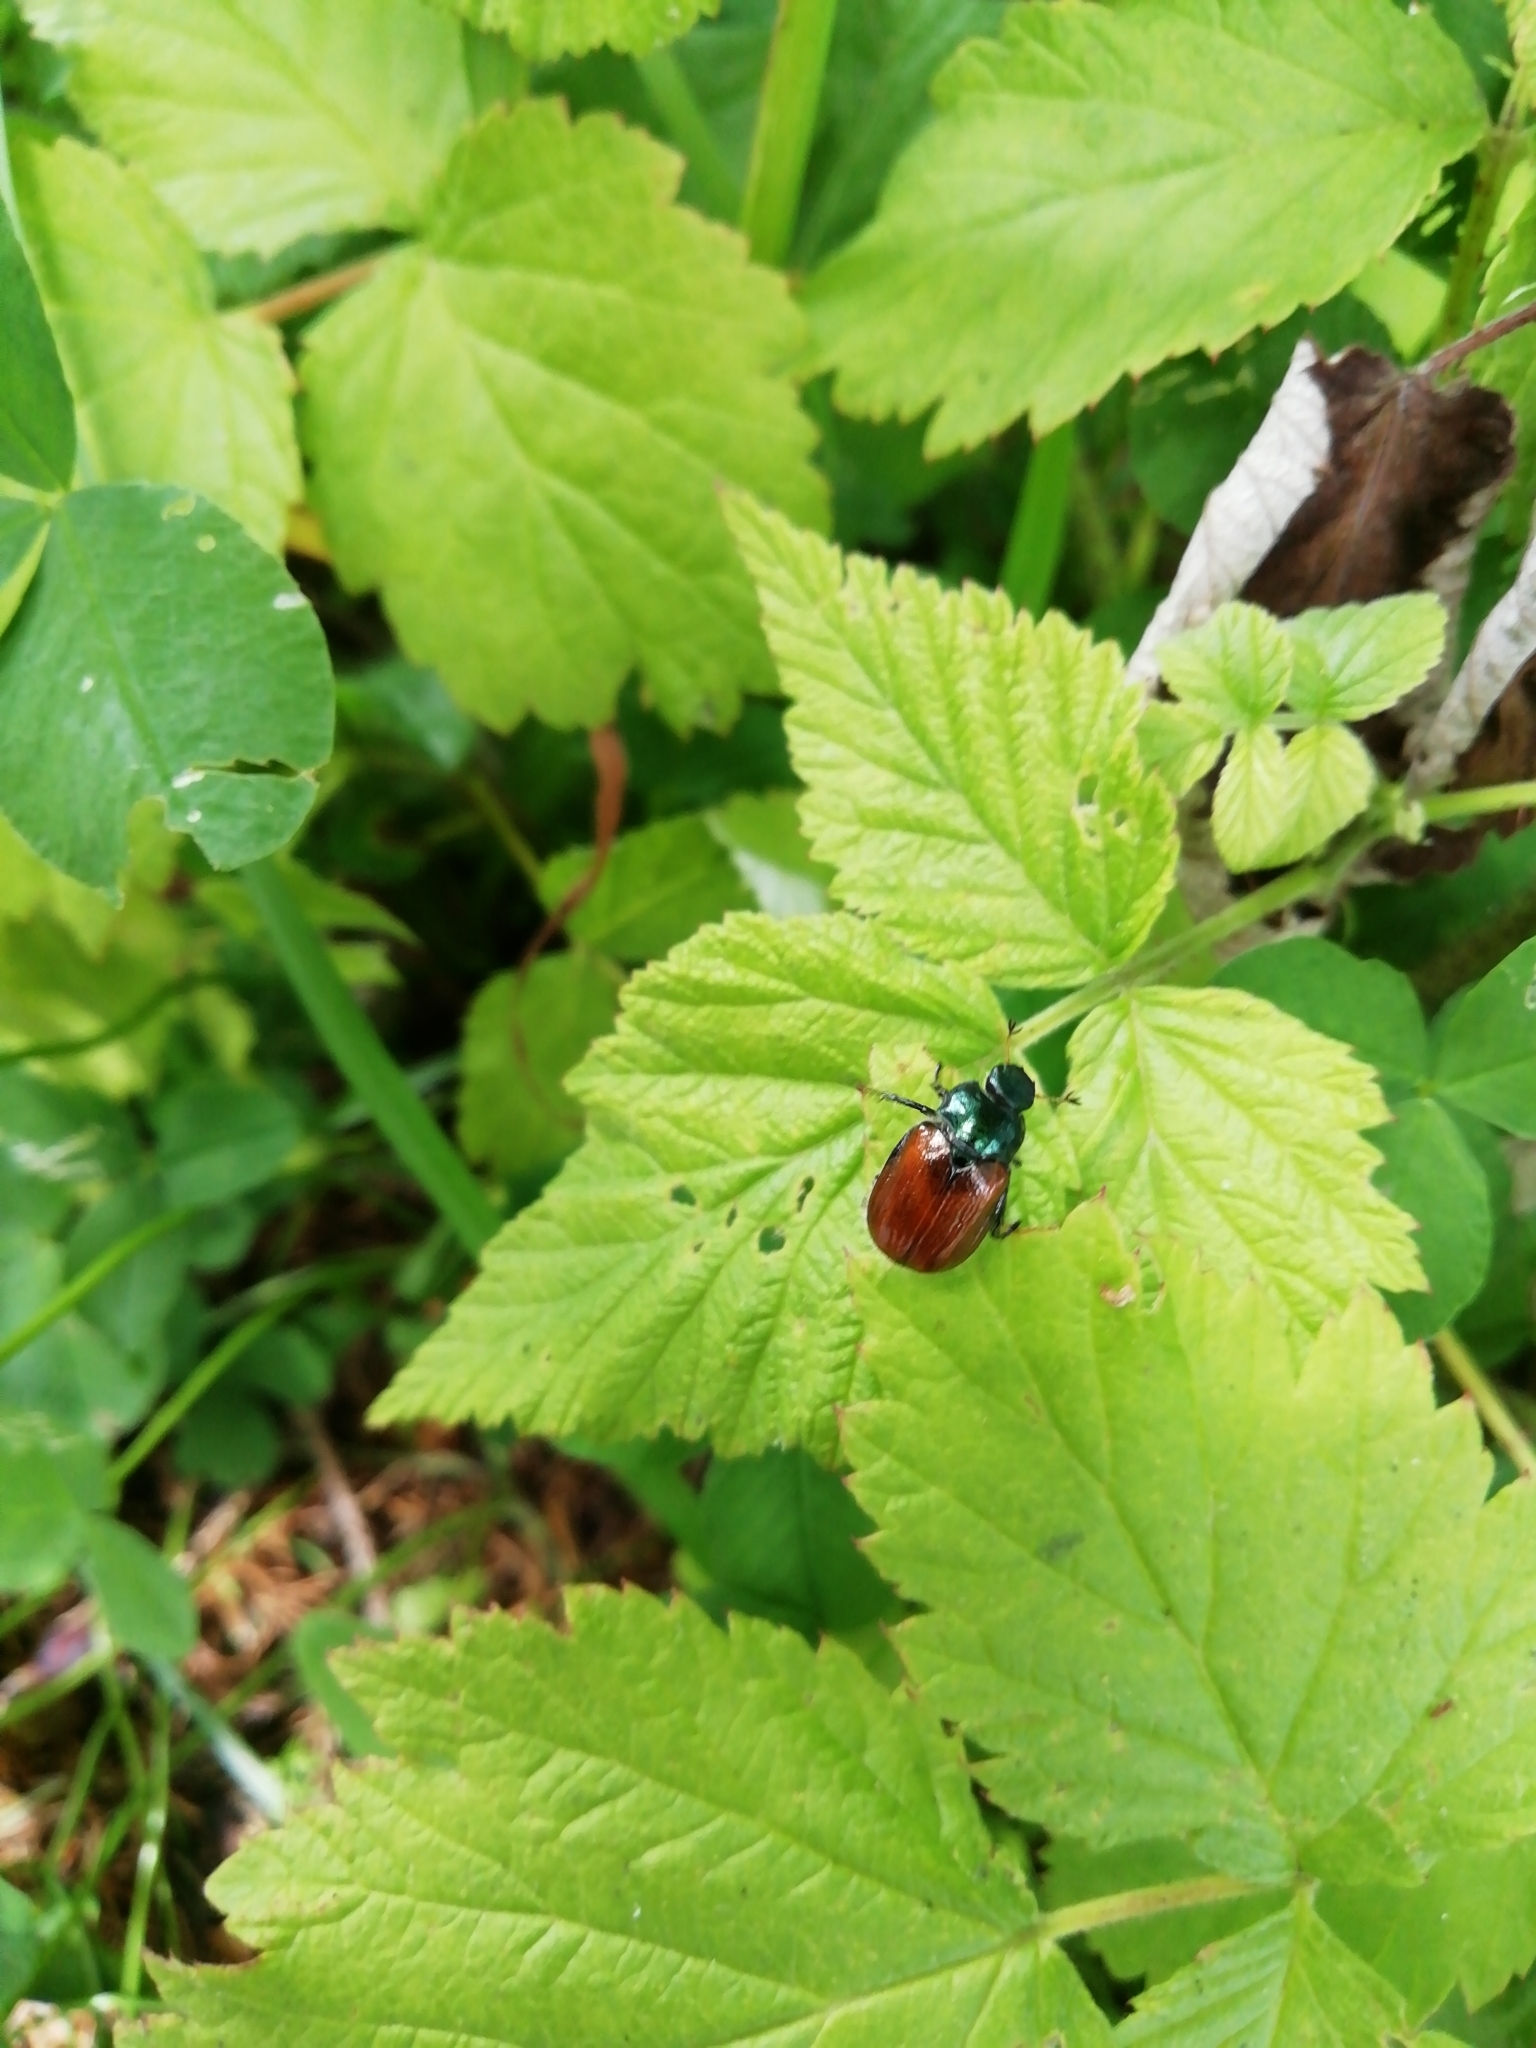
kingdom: Animalia
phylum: Arthropoda
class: Insecta
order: Coleoptera
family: Scarabaeidae
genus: Phyllopertha
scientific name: Phyllopertha horticola
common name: Garden chafer
